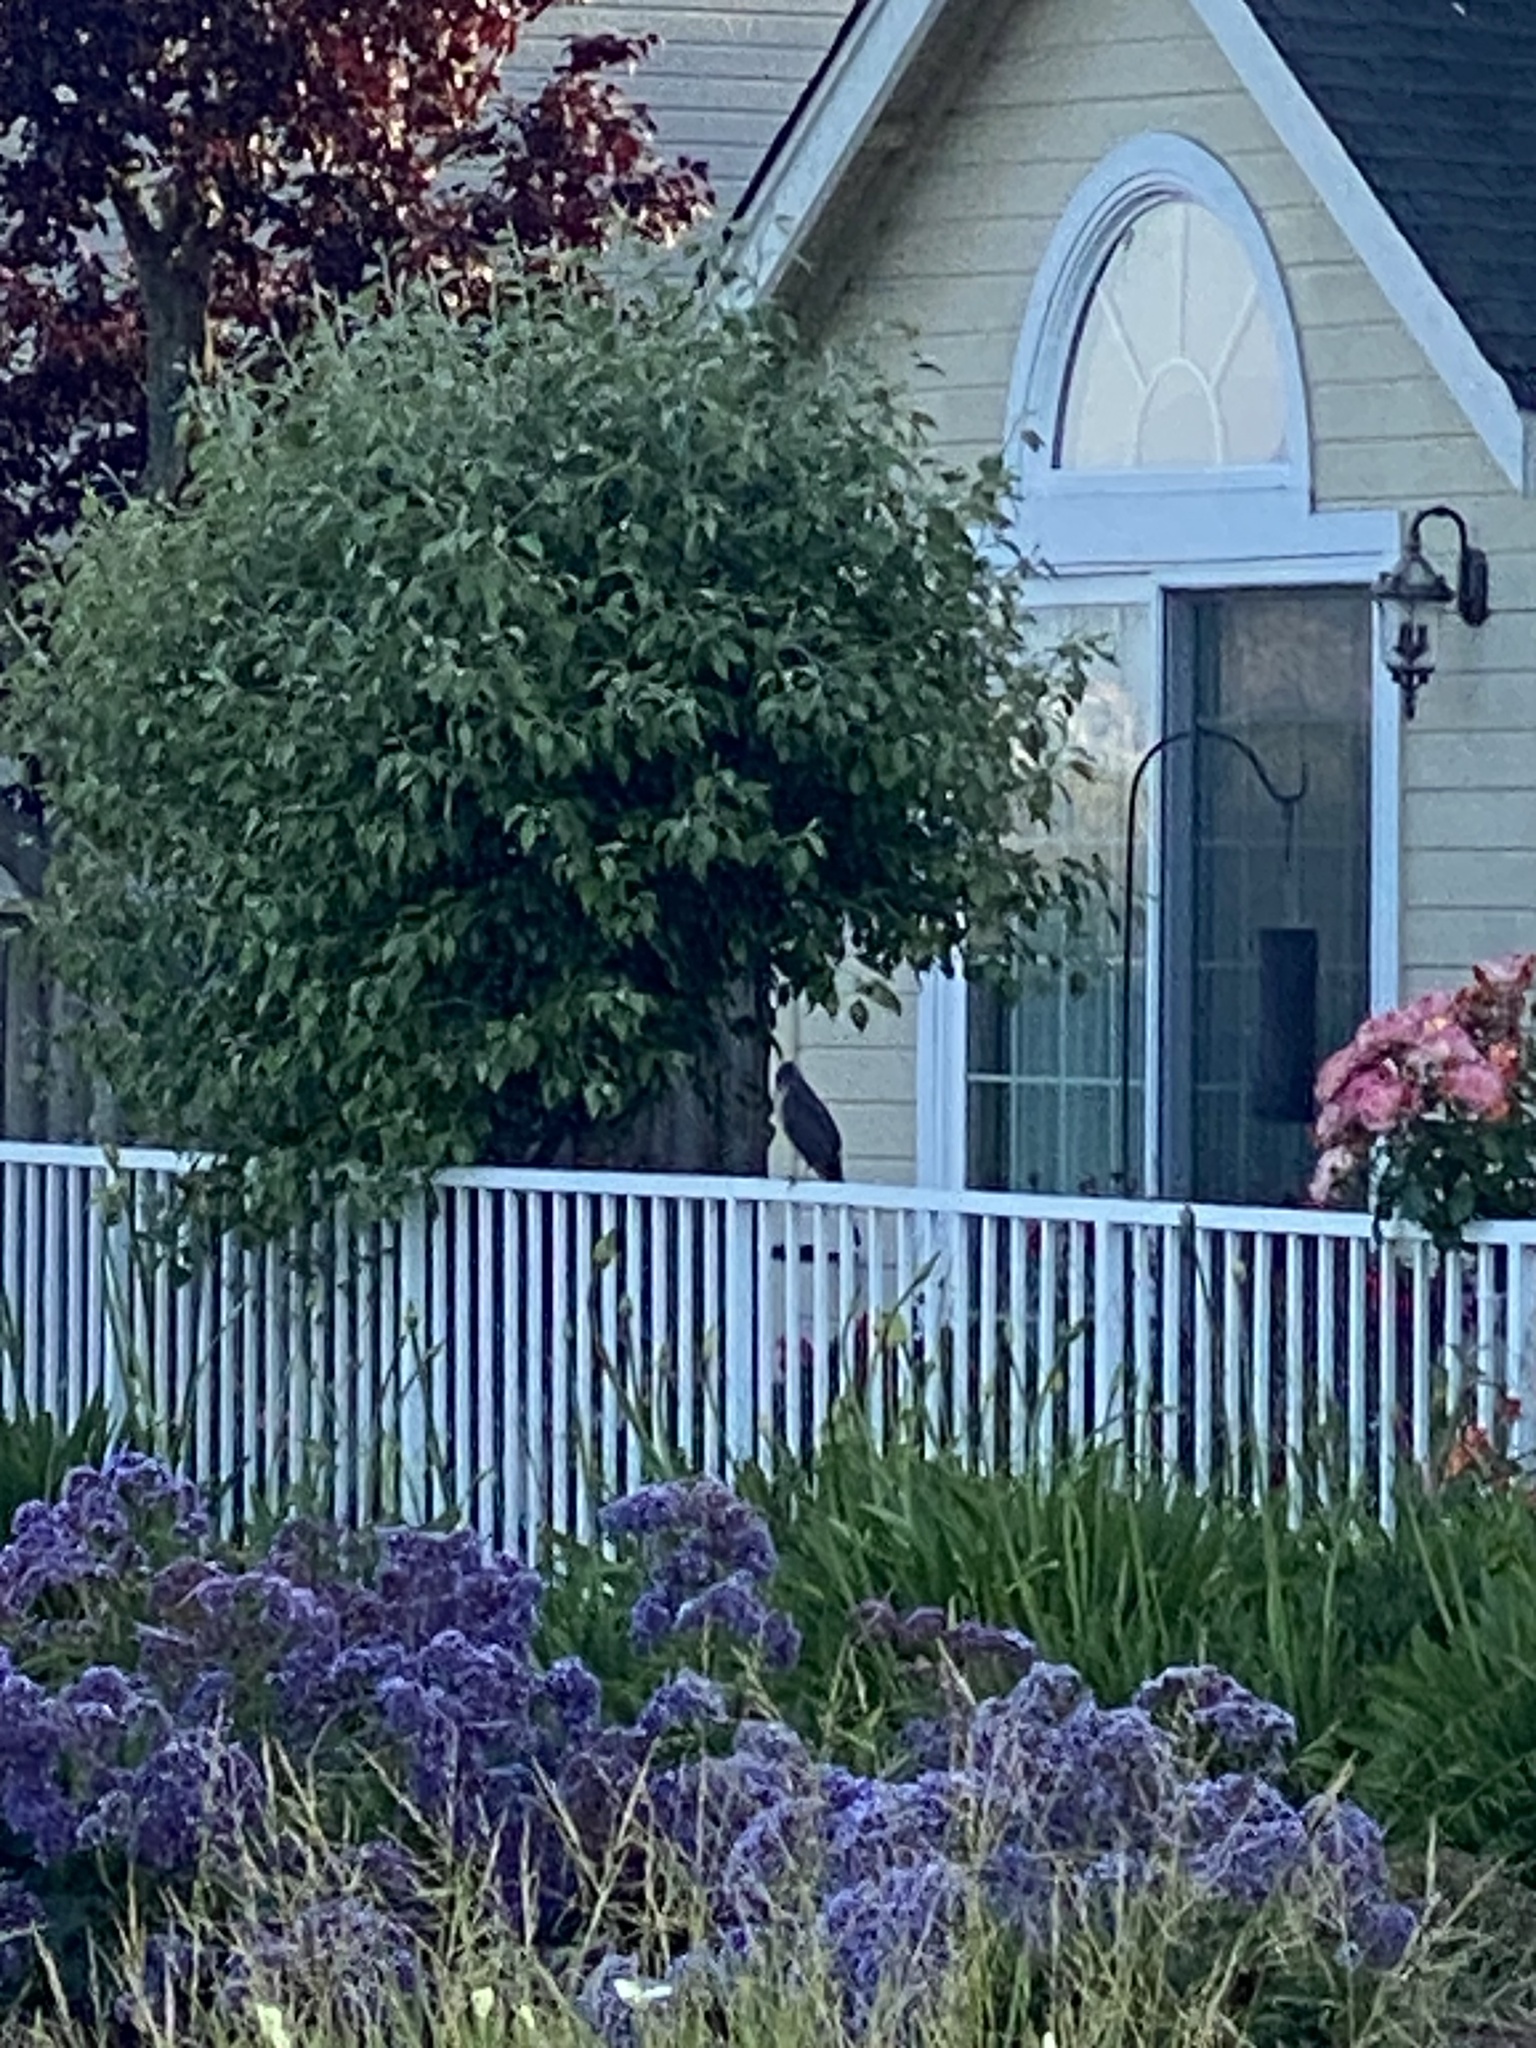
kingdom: Animalia
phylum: Chordata
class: Aves
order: Accipitriformes
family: Accipitridae
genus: Accipiter
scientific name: Accipiter cooperii
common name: Cooper's hawk
